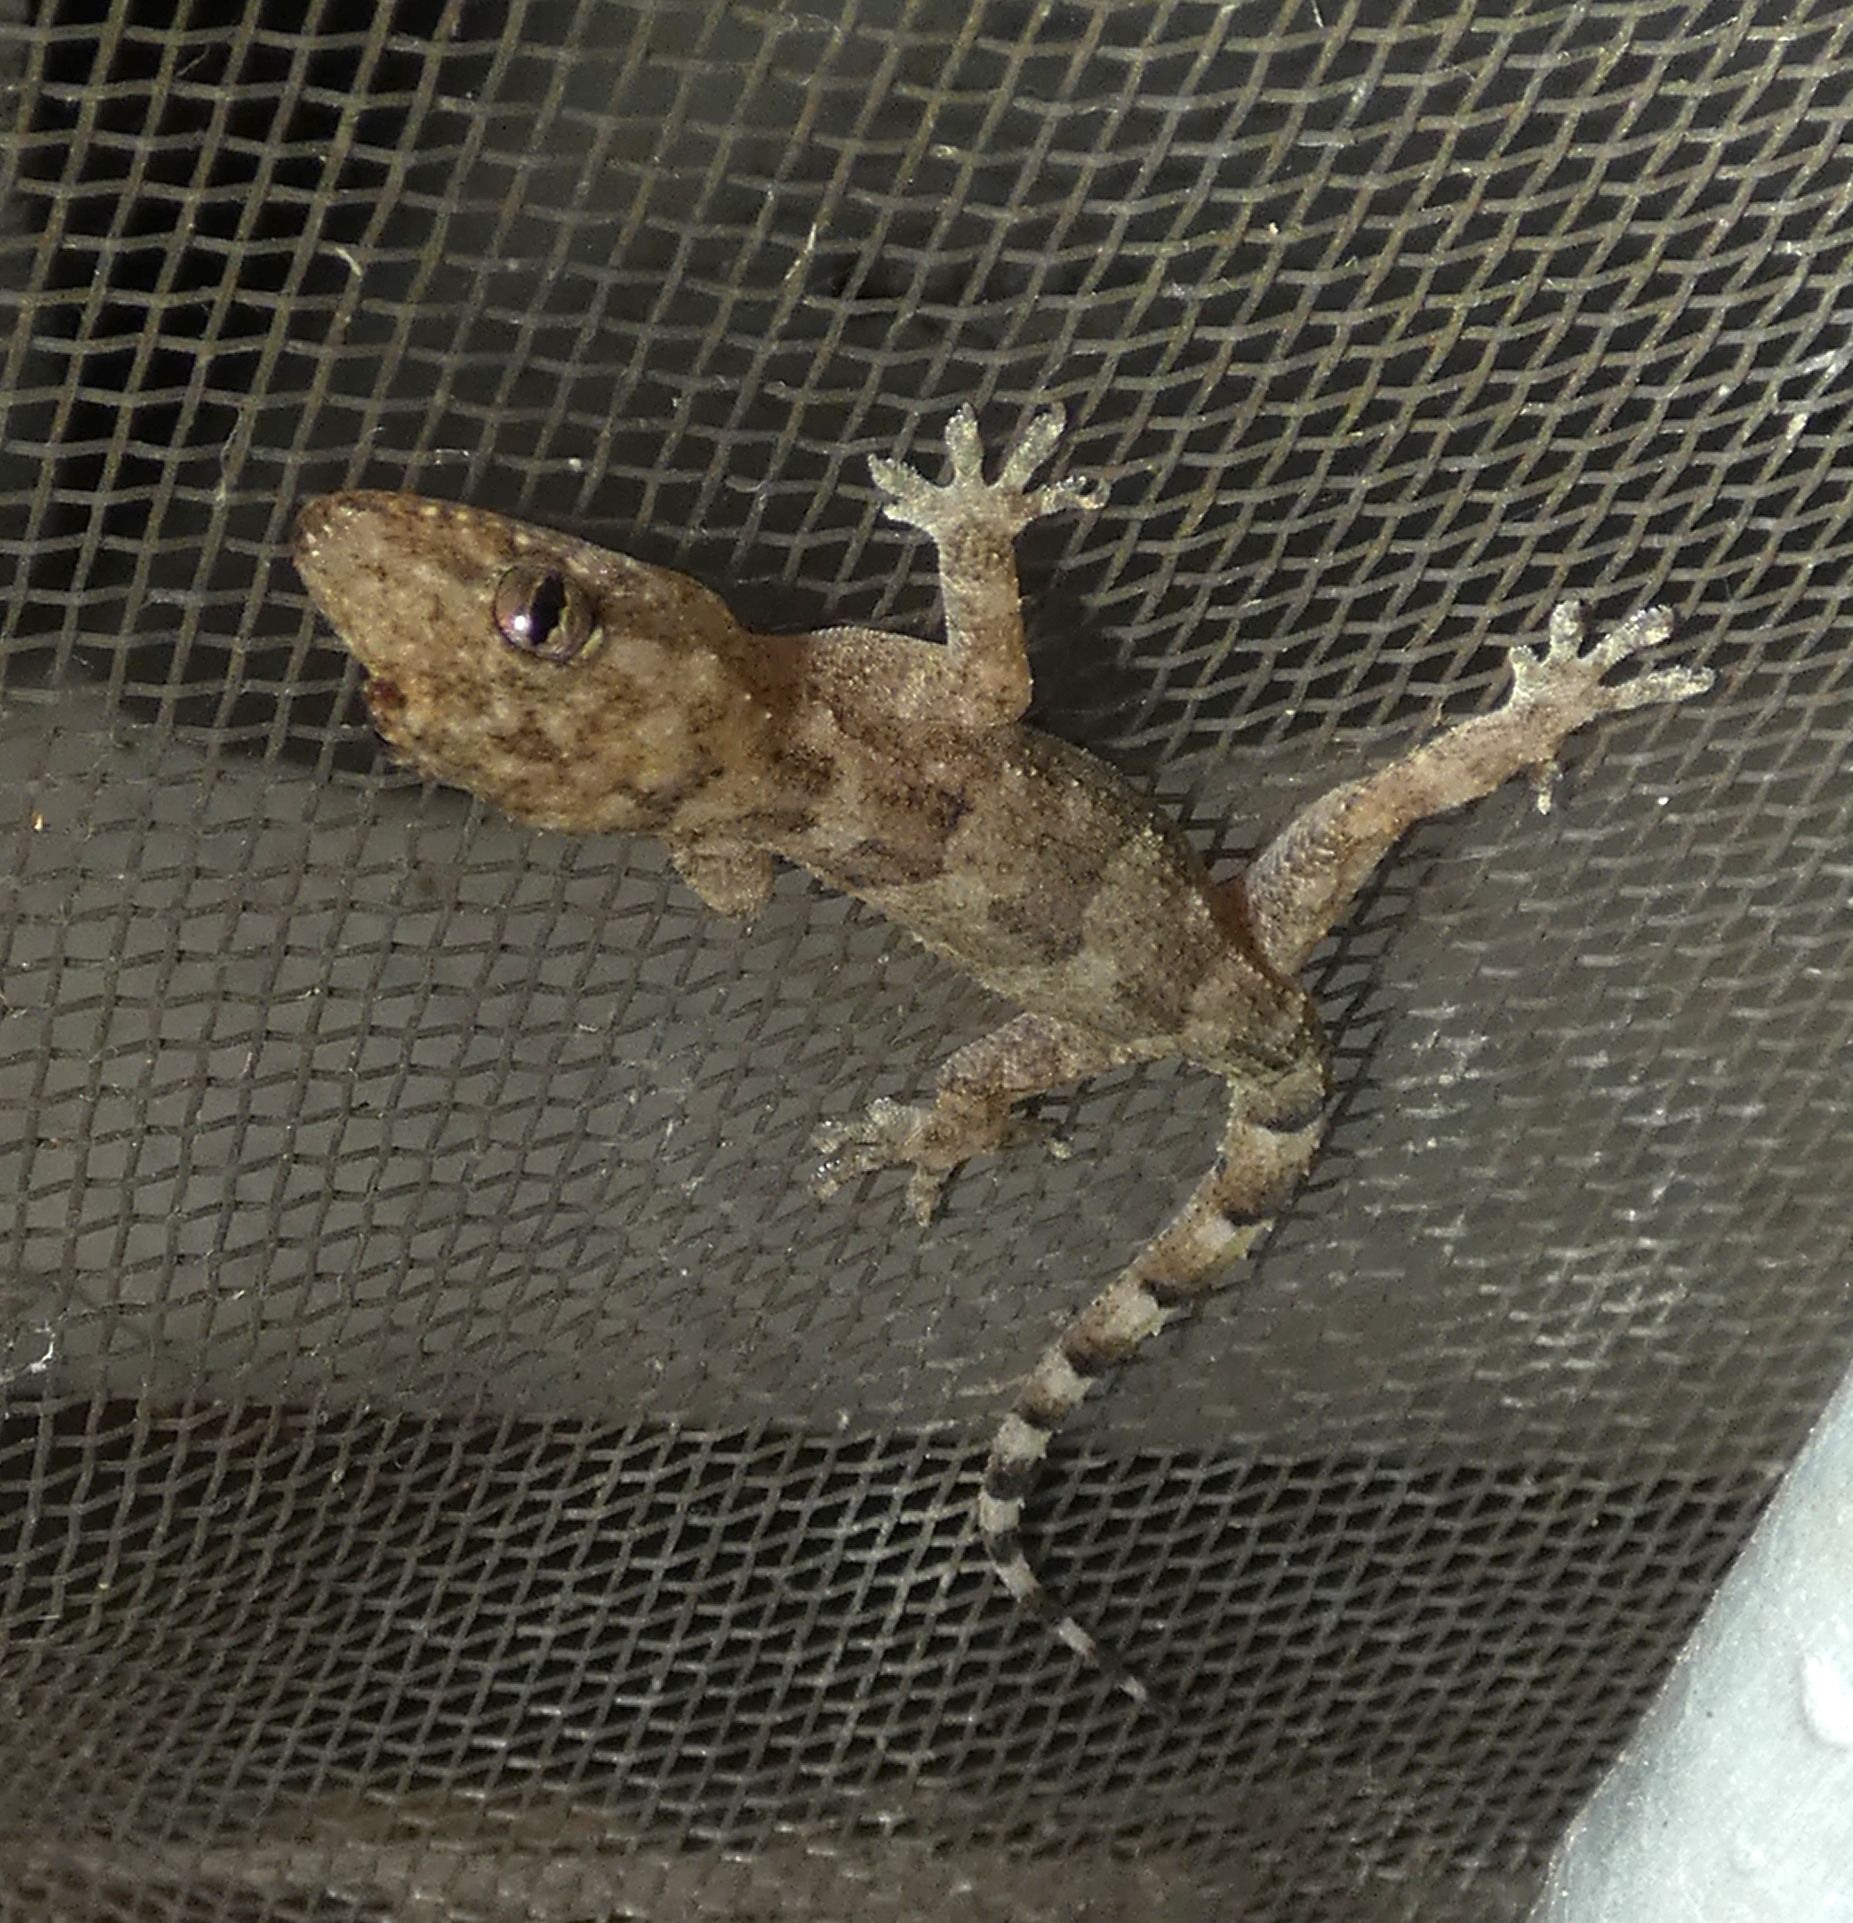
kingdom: Animalia
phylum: Chordata
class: Squamata
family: Gekkonidae
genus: Hemidactylus
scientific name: Hemidactylus mabouia
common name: House gecko
